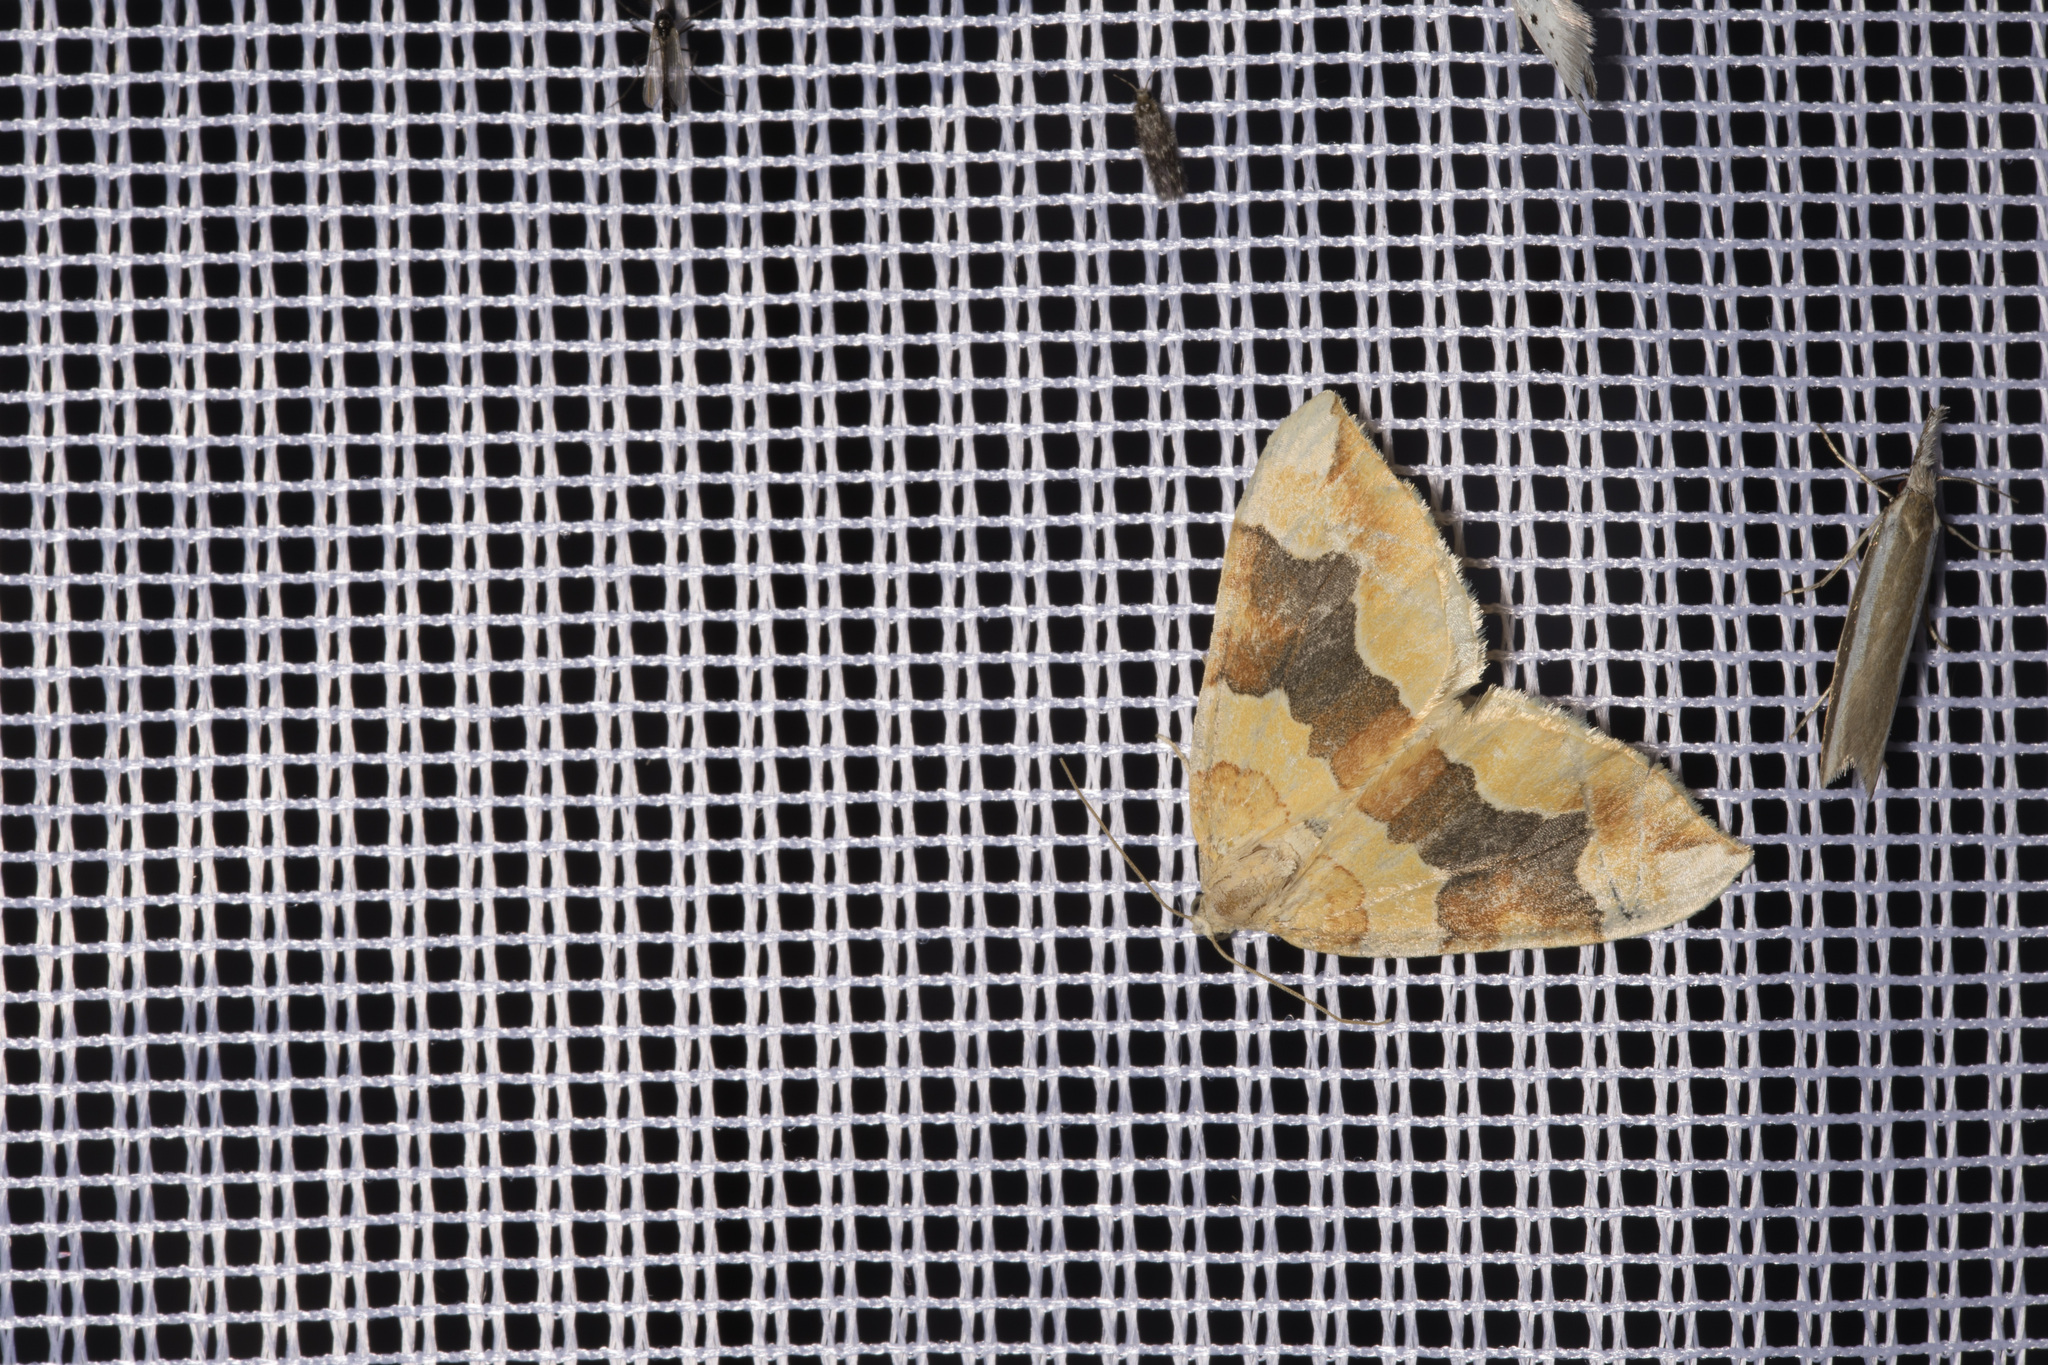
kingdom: Animalia
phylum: Arthropoda
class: Insecta
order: Lepidoptera
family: Geometridae
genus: Cidaria
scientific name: Cidaria fulvata
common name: Barred yellow
